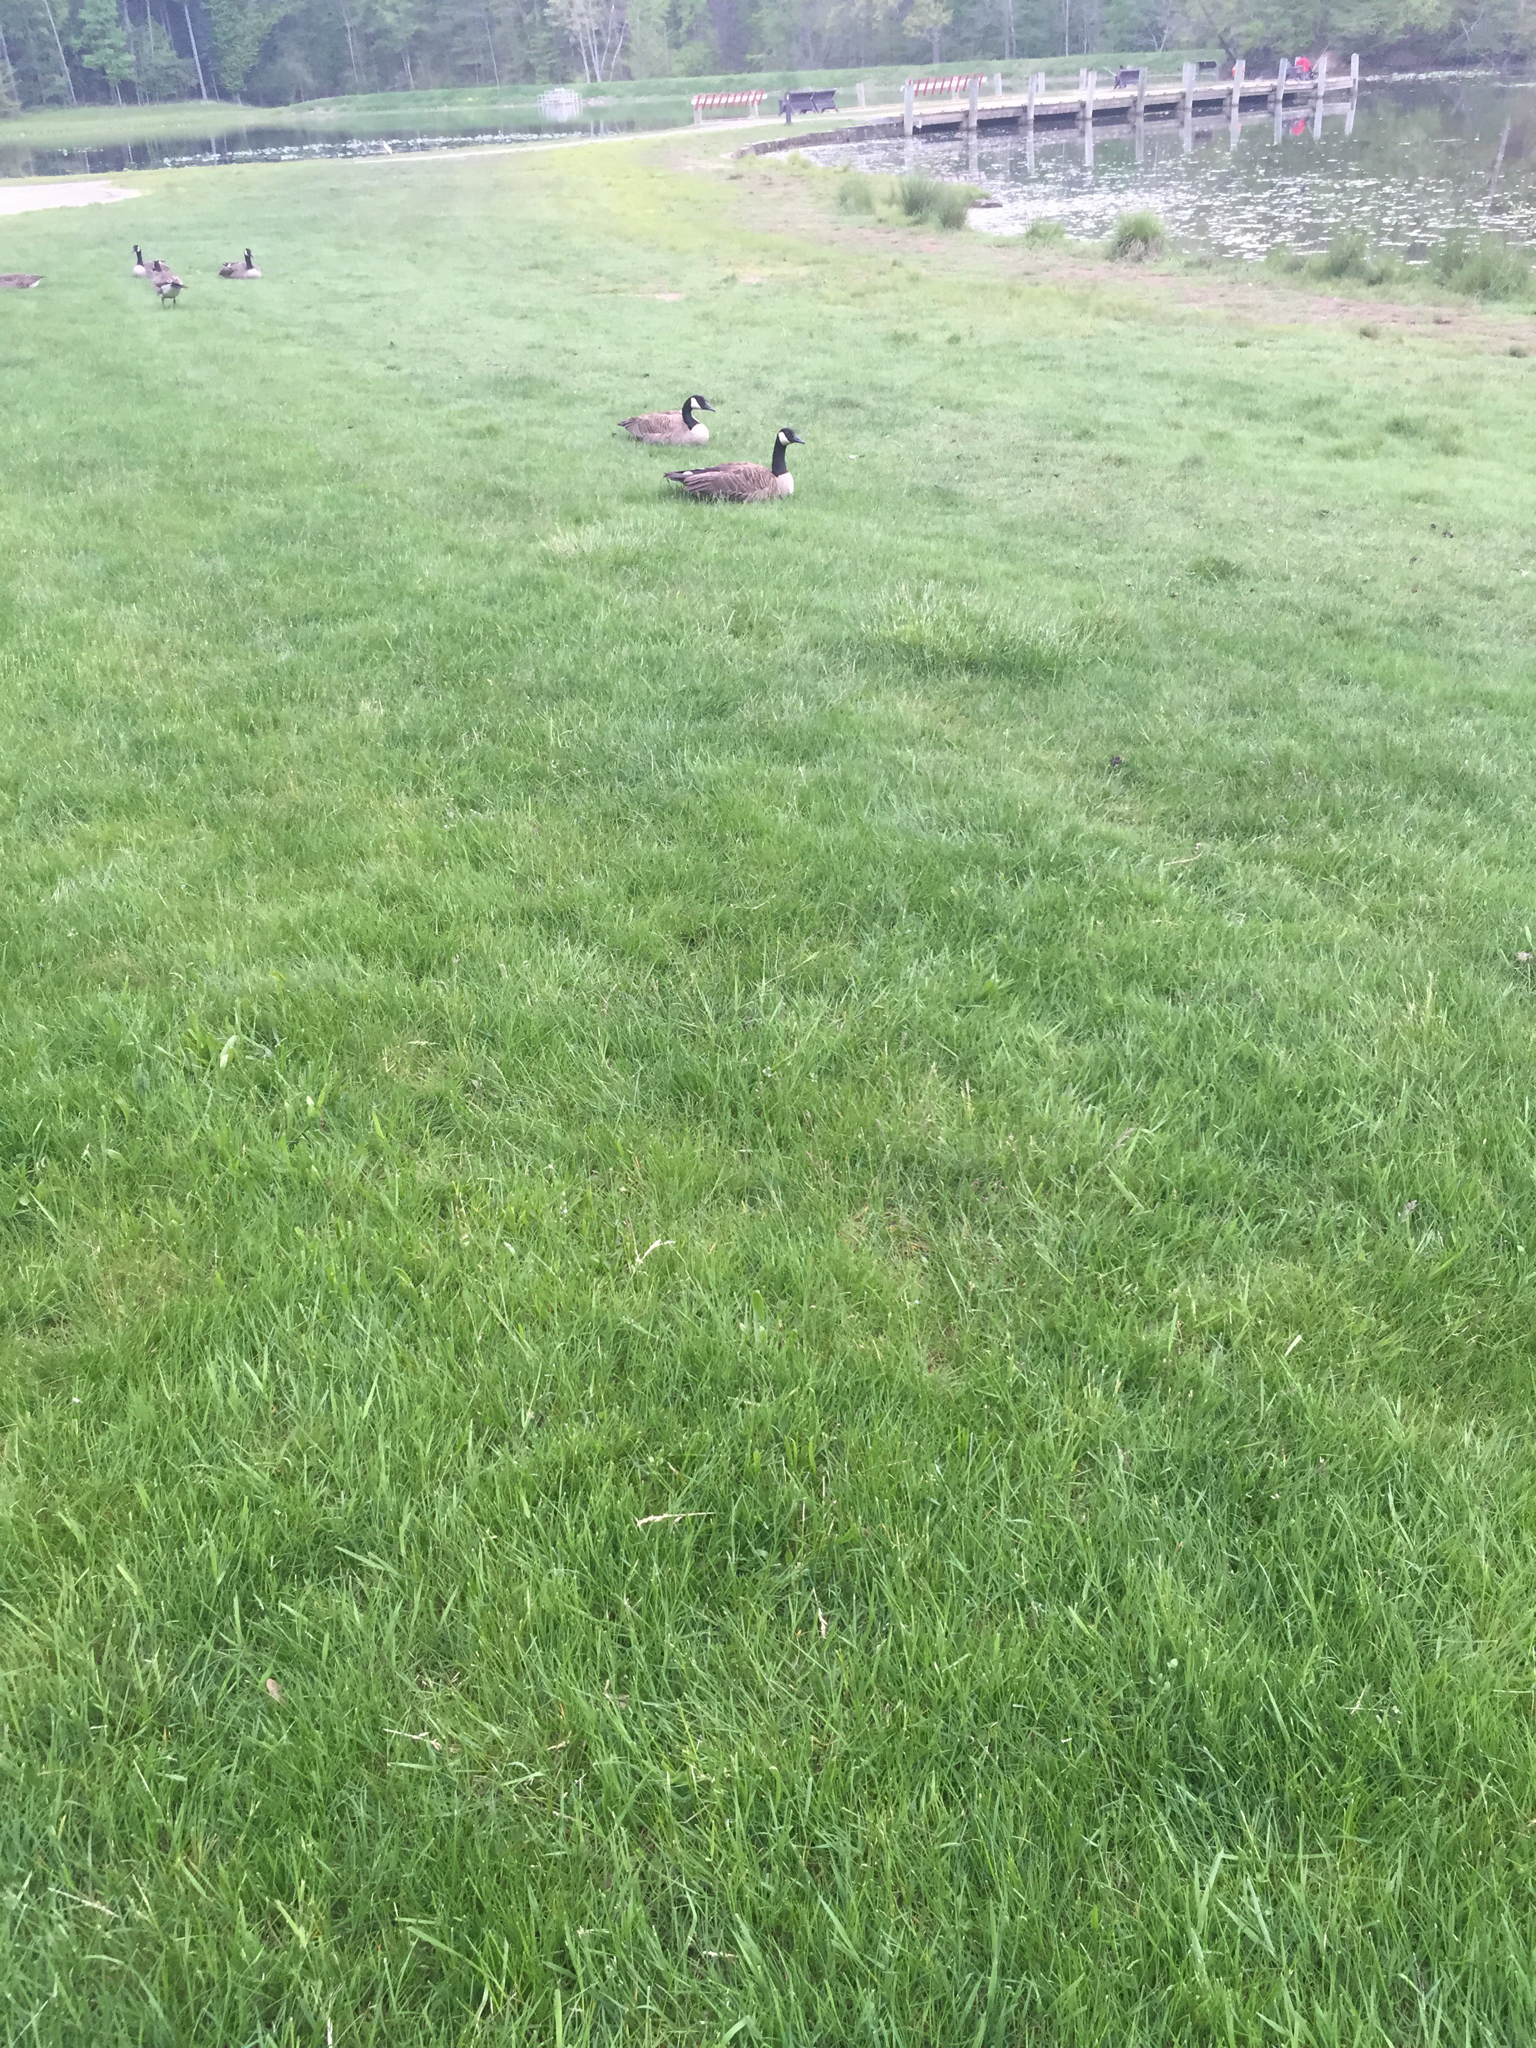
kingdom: Animalia
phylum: Chordata
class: Aves
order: Anseriformes
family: Anatidae
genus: Branta
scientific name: Branta canadensis
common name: Canada goose
